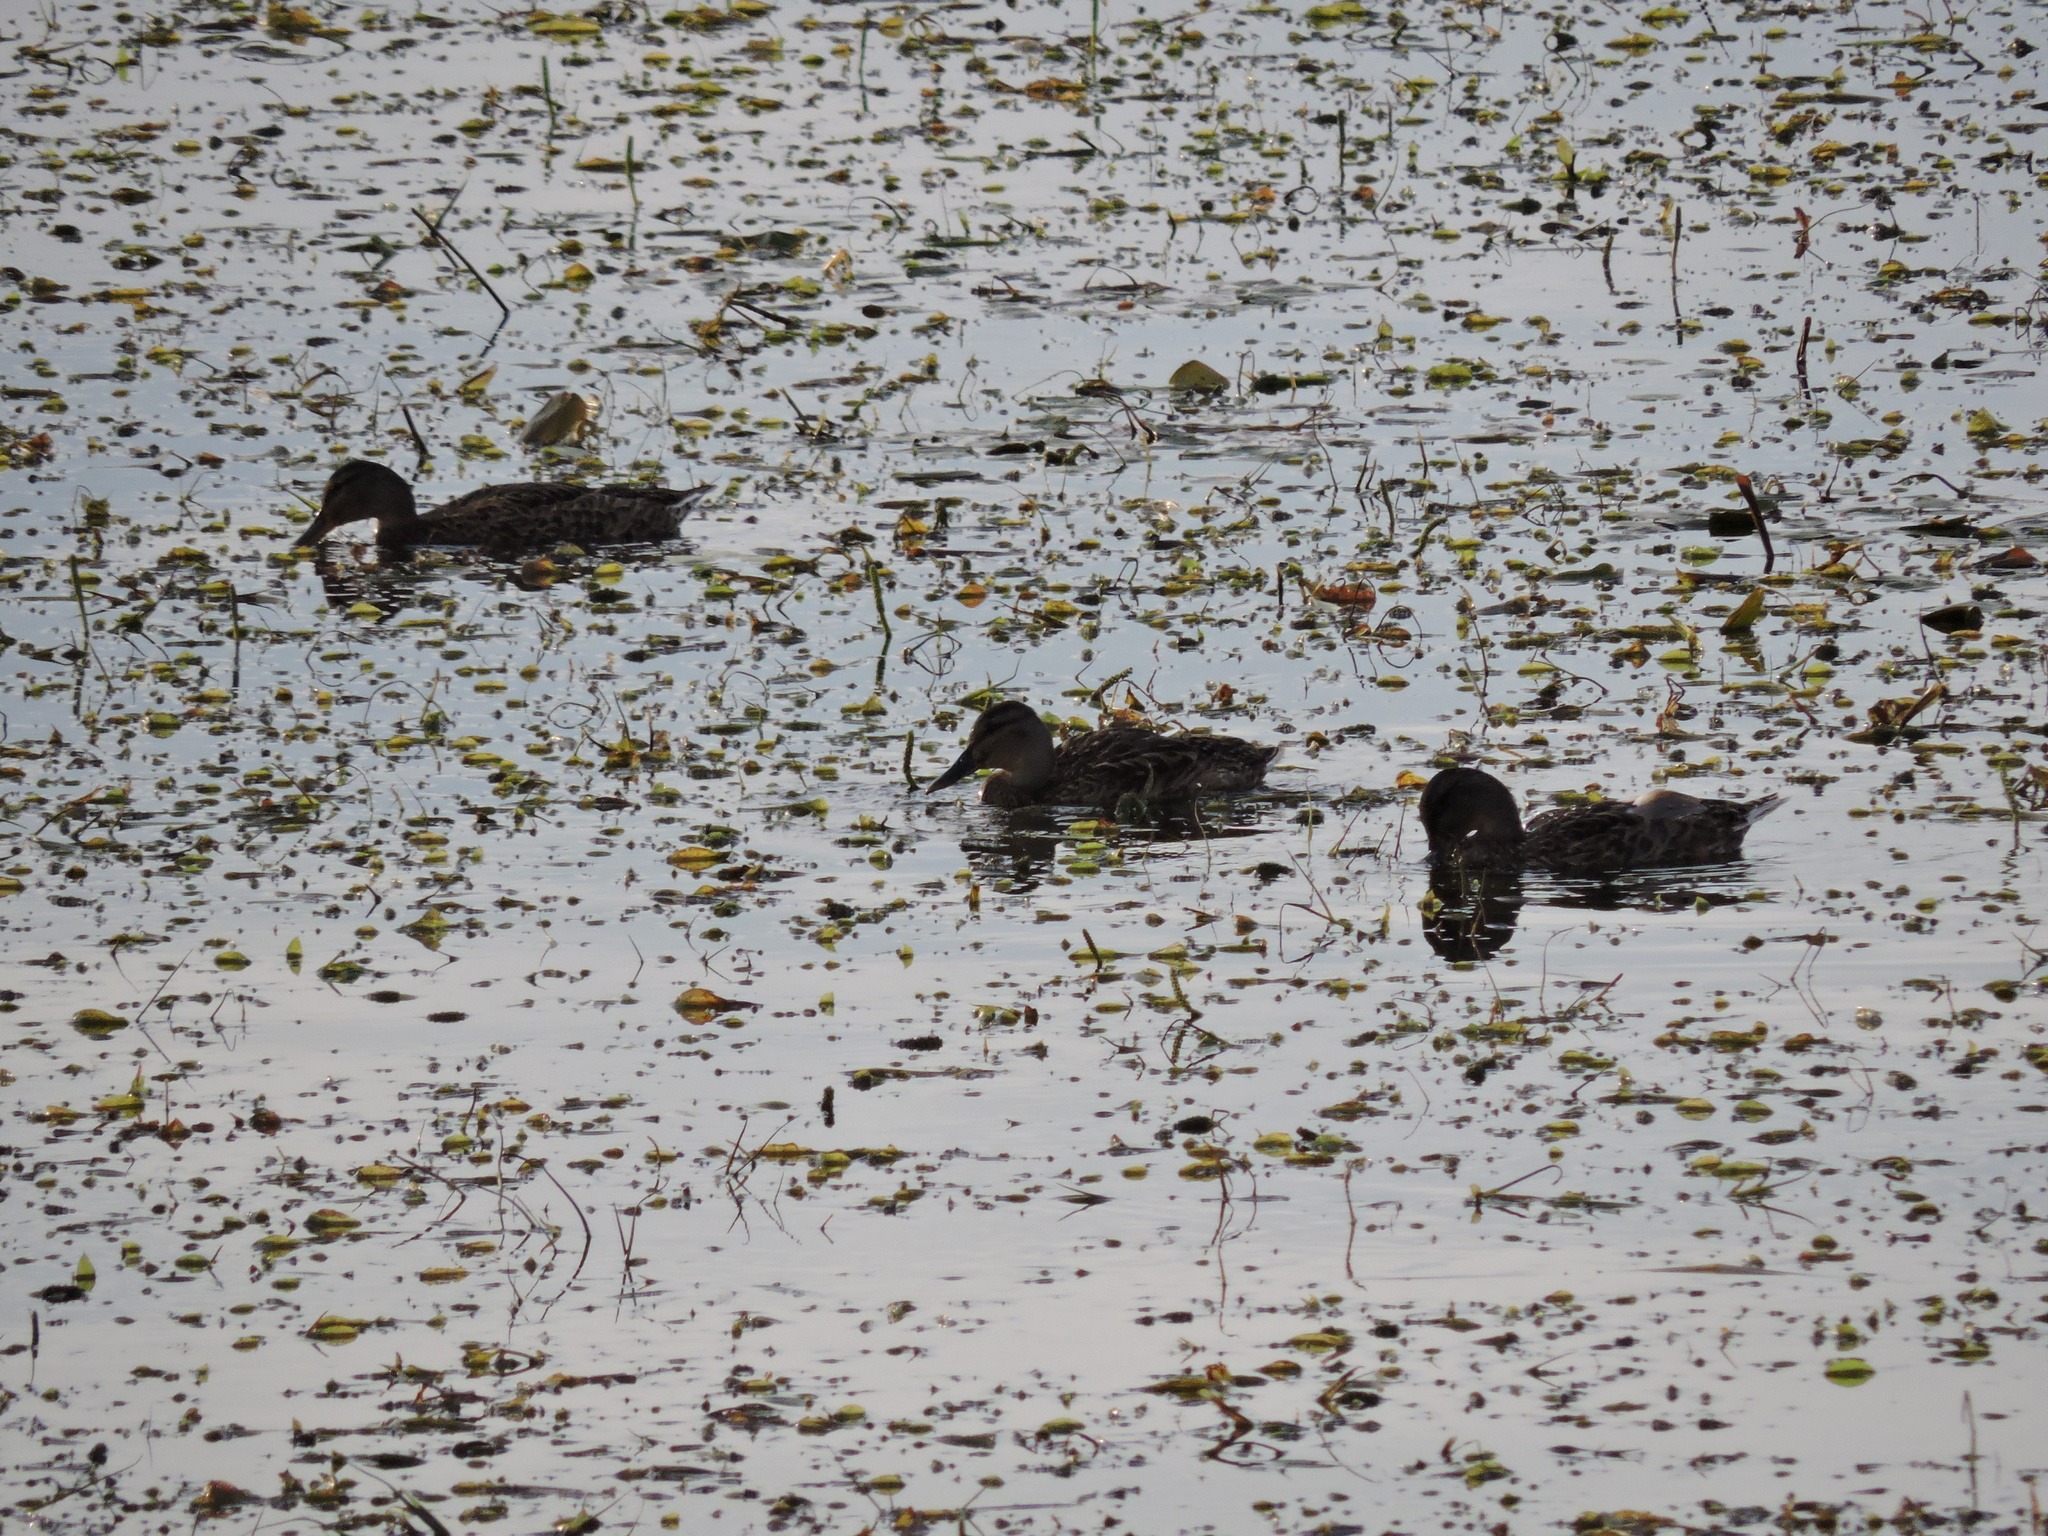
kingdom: Animalia
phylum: Chordata
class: Aves
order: Anseriformes
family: Anatidae
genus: Anas
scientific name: Anas platyrhynchos
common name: Mallard
